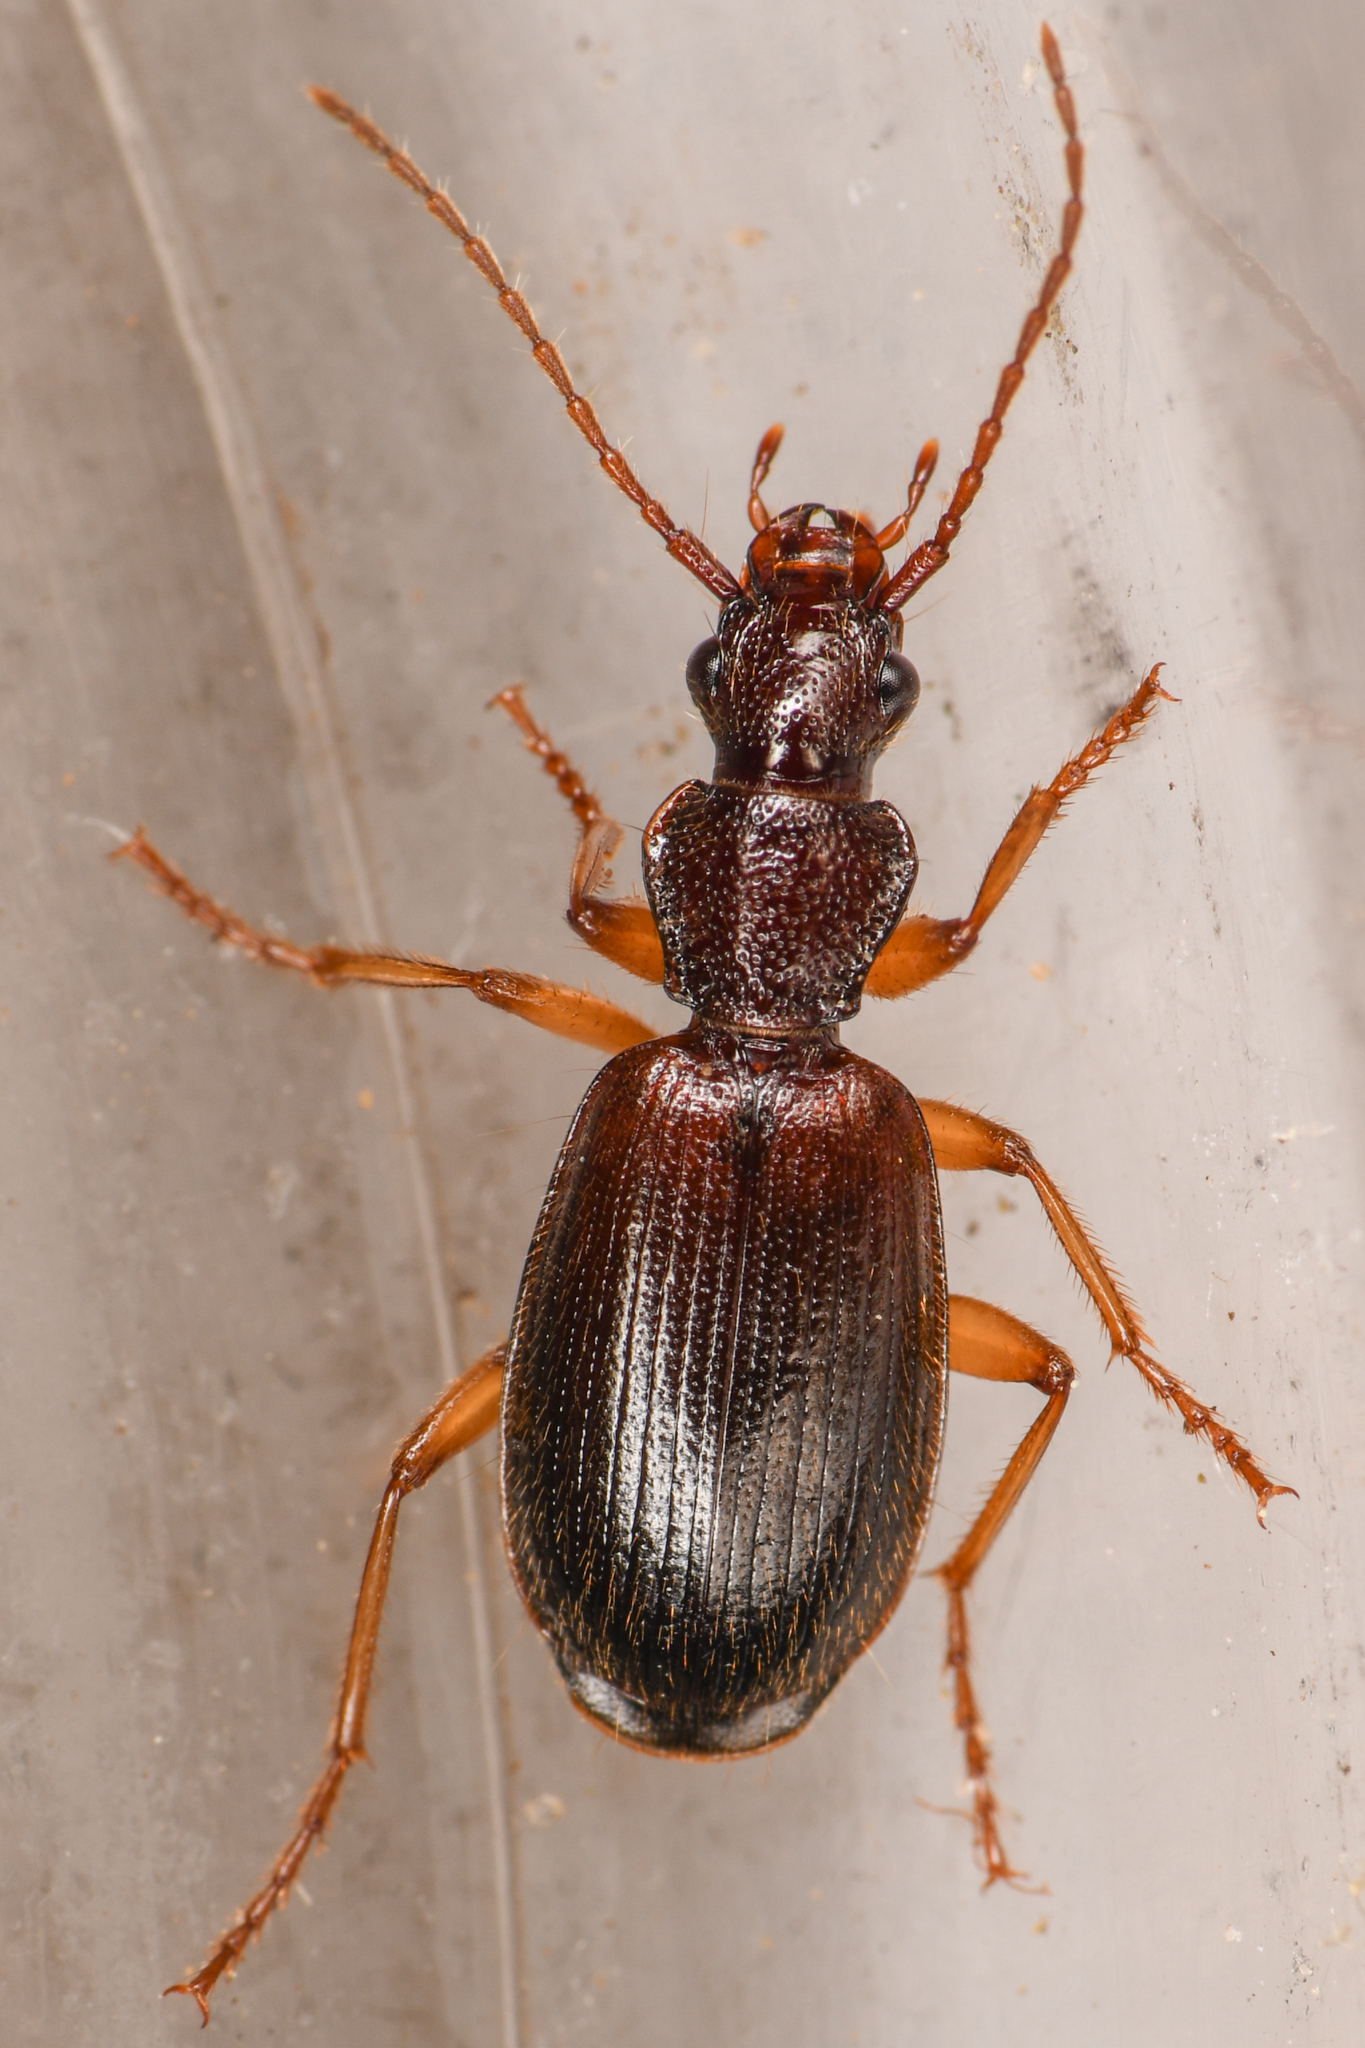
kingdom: Animalia
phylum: Arthropoda
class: Insecta
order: Coleoptera
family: Carabidae
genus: Cymindis
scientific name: Cymindis unicolor
